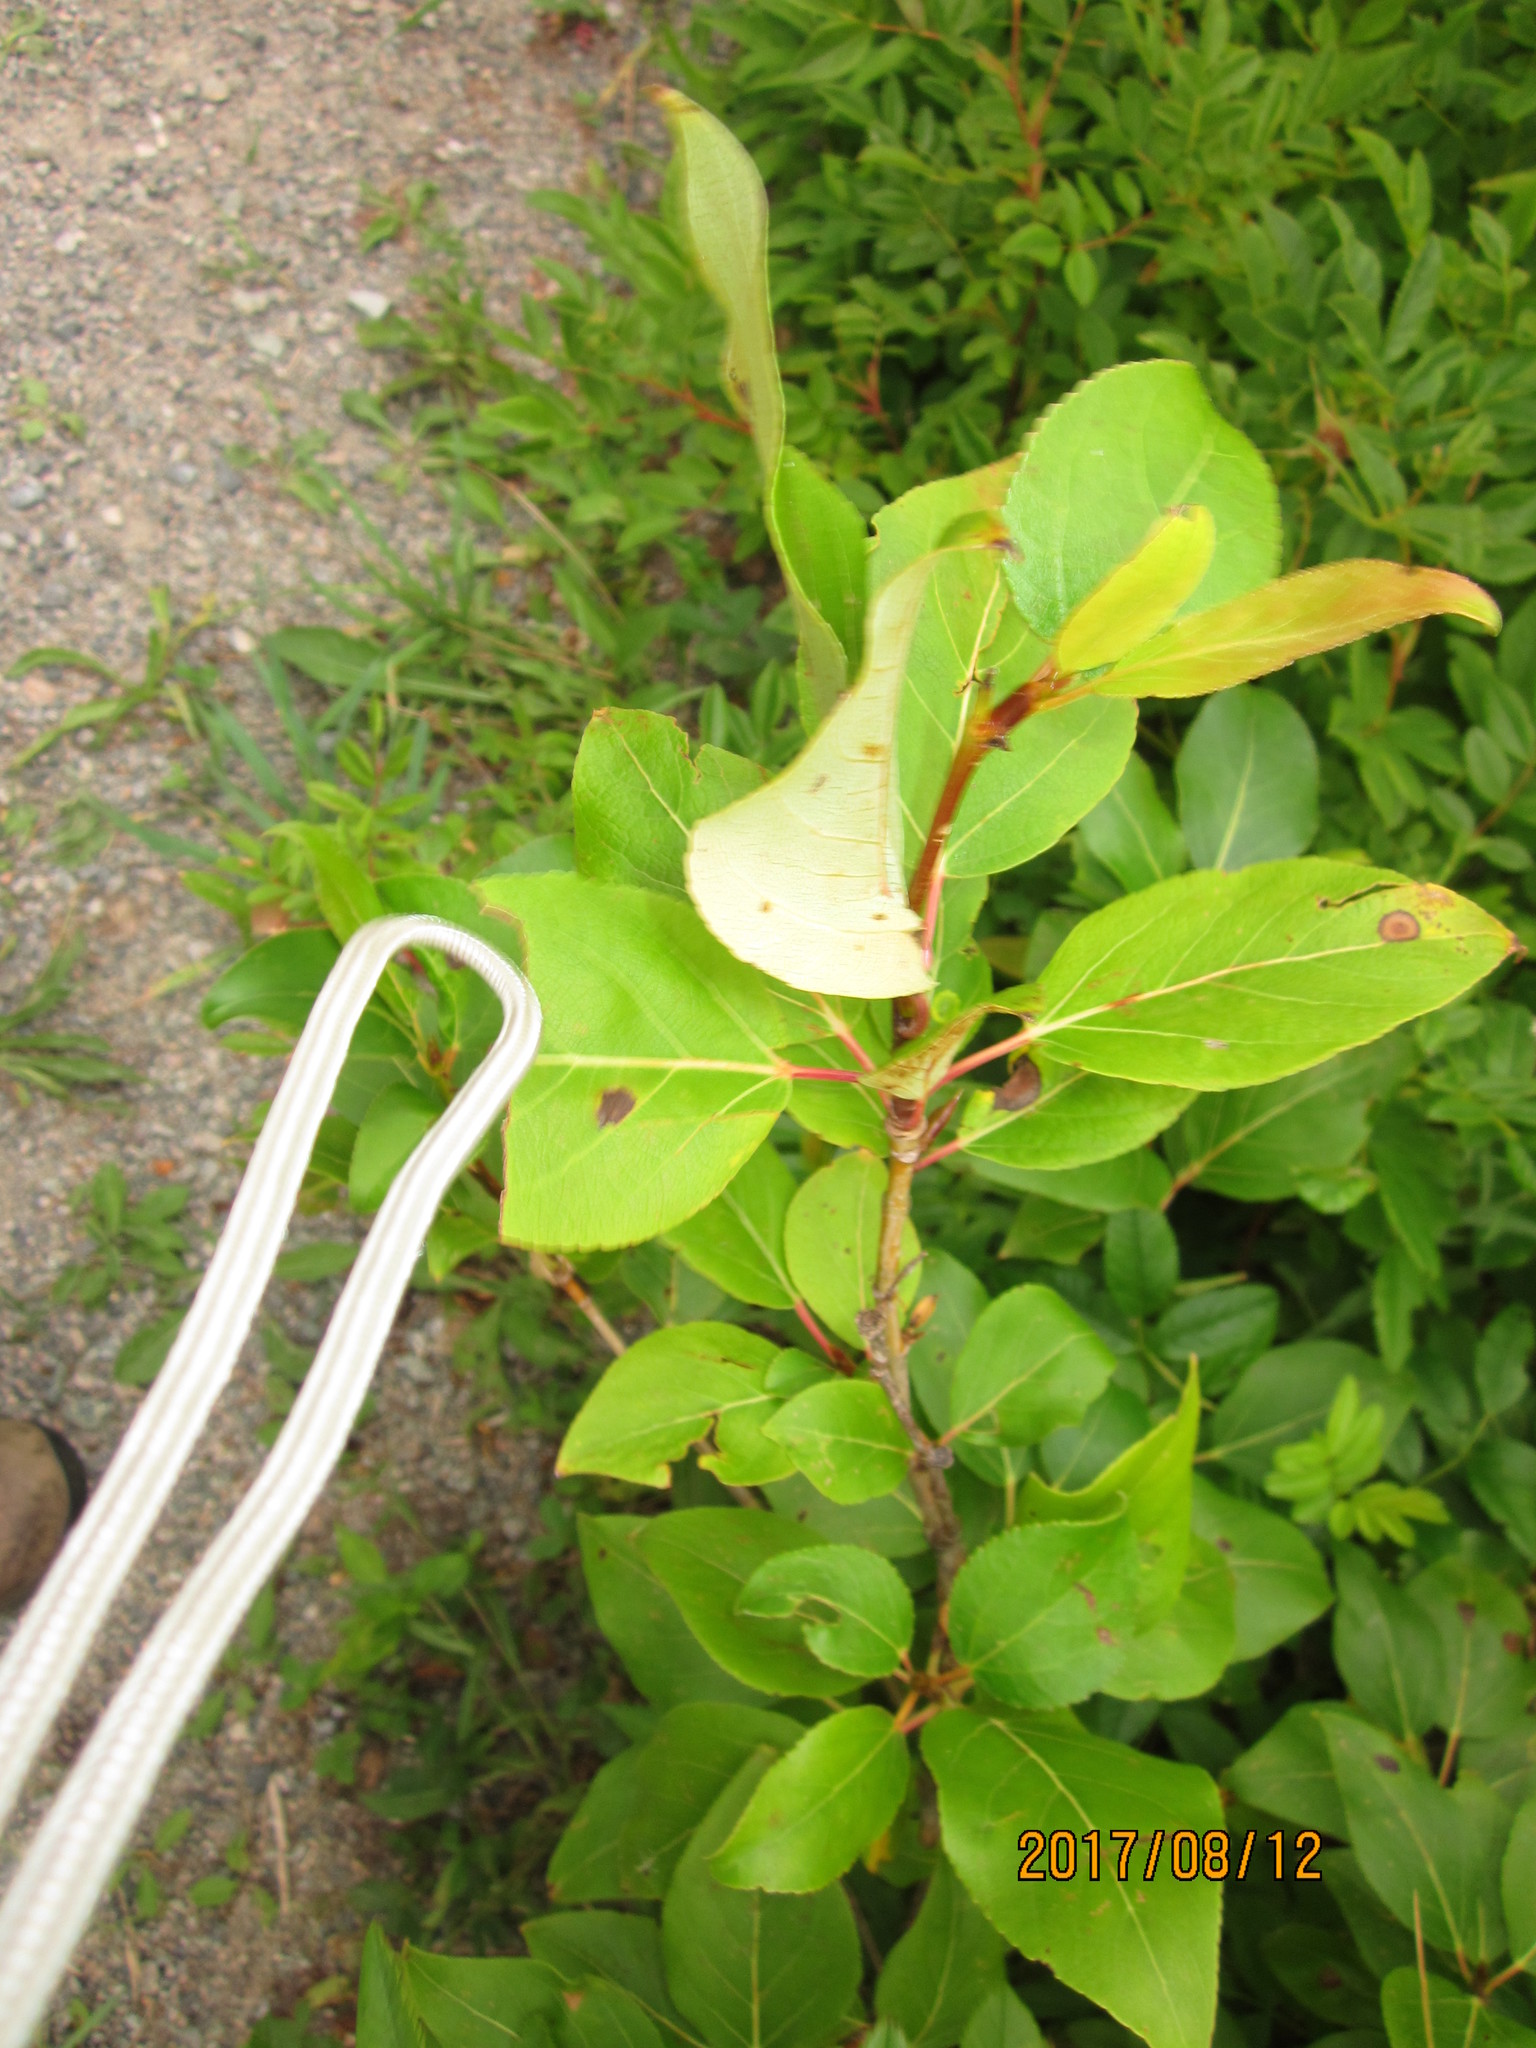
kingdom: Plantae
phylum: Tracheophyta
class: Magnoliopsida
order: Malpighiales
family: Salicaceae
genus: Populus
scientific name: Populus balsamifera
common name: Balsam poplar
